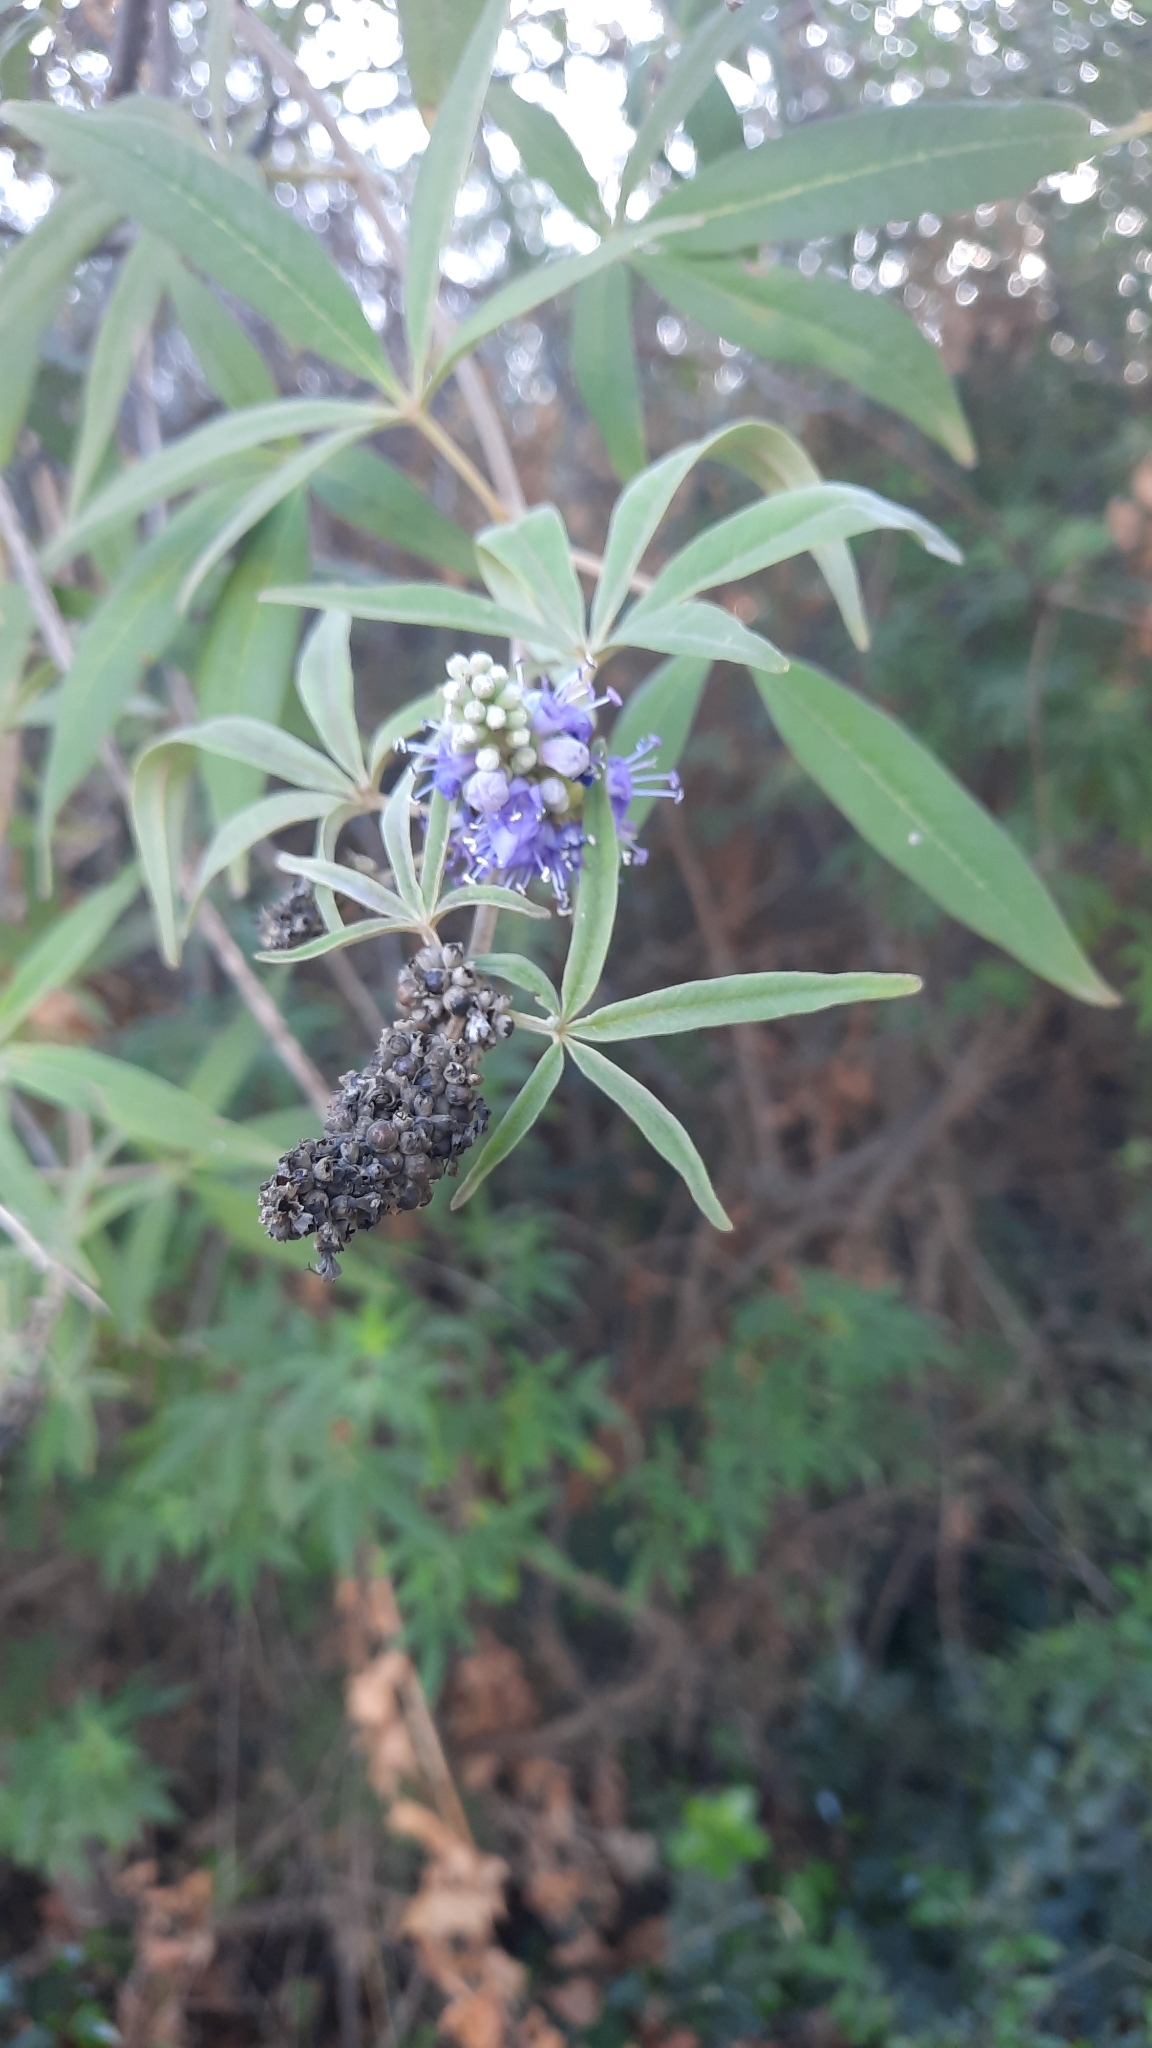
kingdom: Plantae
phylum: Tracheophyta
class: Magnoliopsida
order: Lamiales
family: Lamiaceae
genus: Vitex
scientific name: Vitex agnus-castus
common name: Chasteberry
